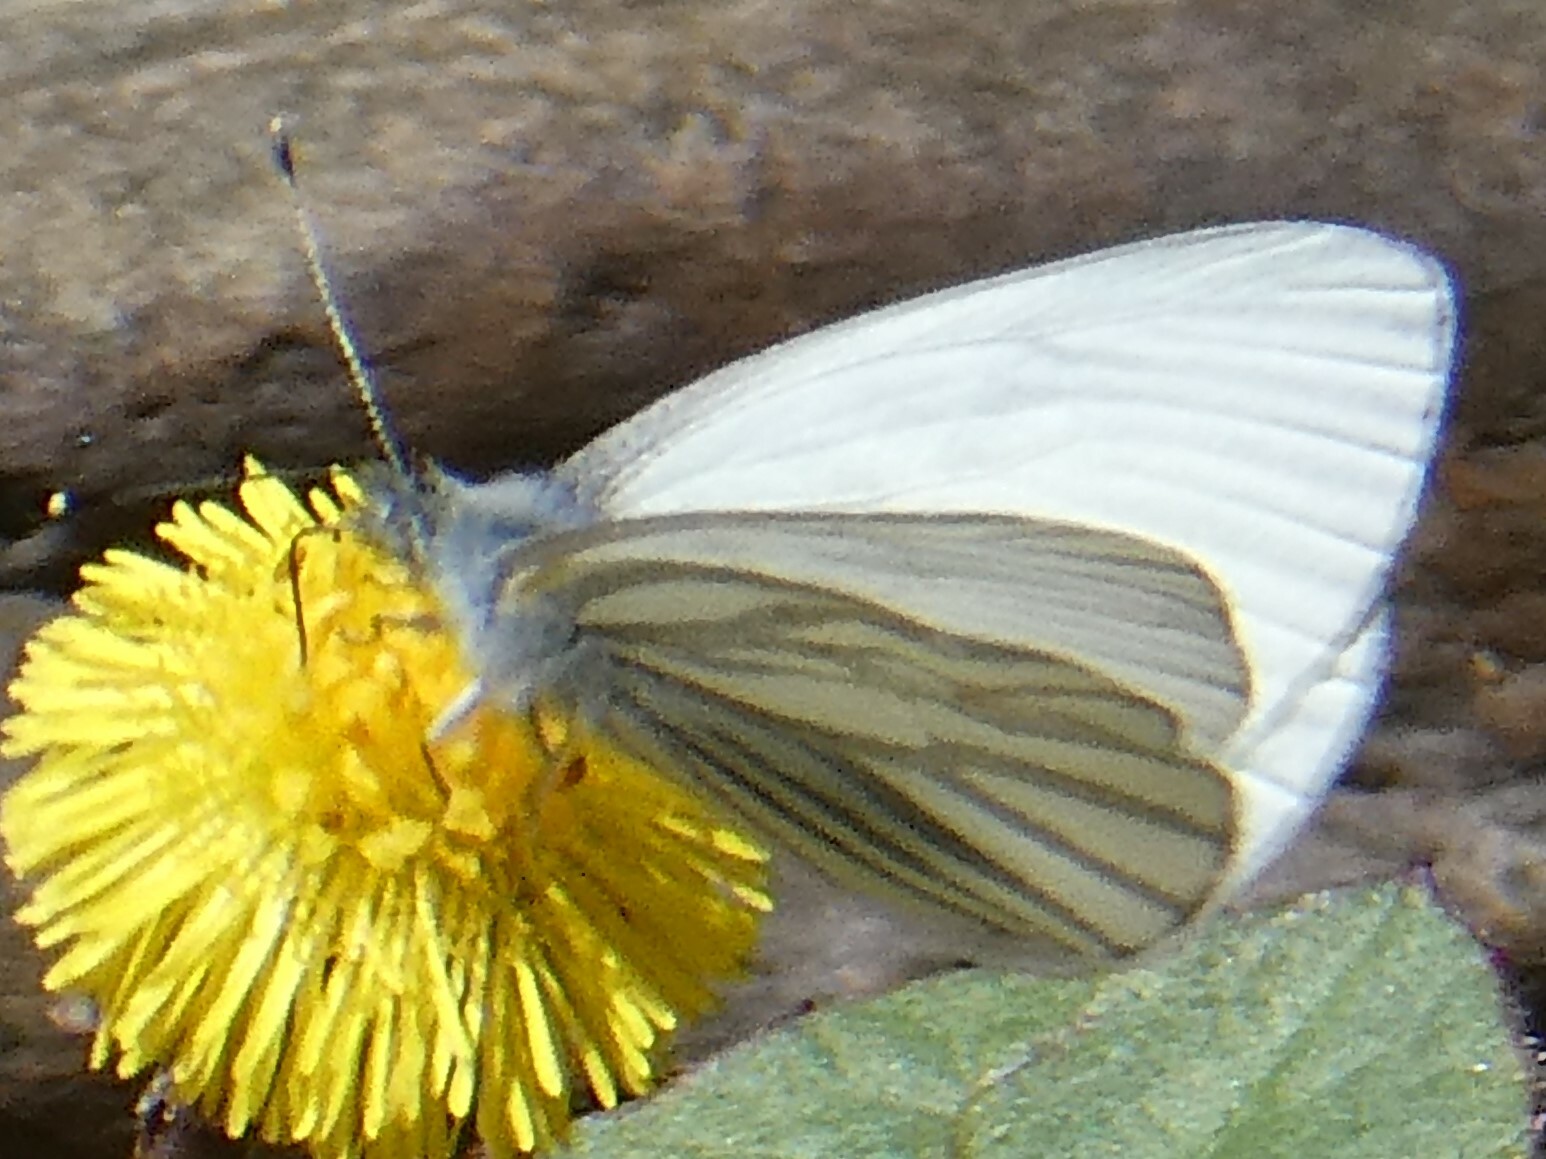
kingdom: Animalia
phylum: Arthropoda
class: Insecta
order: Lepidoptera
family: Pieridae
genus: Pieris
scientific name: Pieris oleracea
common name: Mustard white
